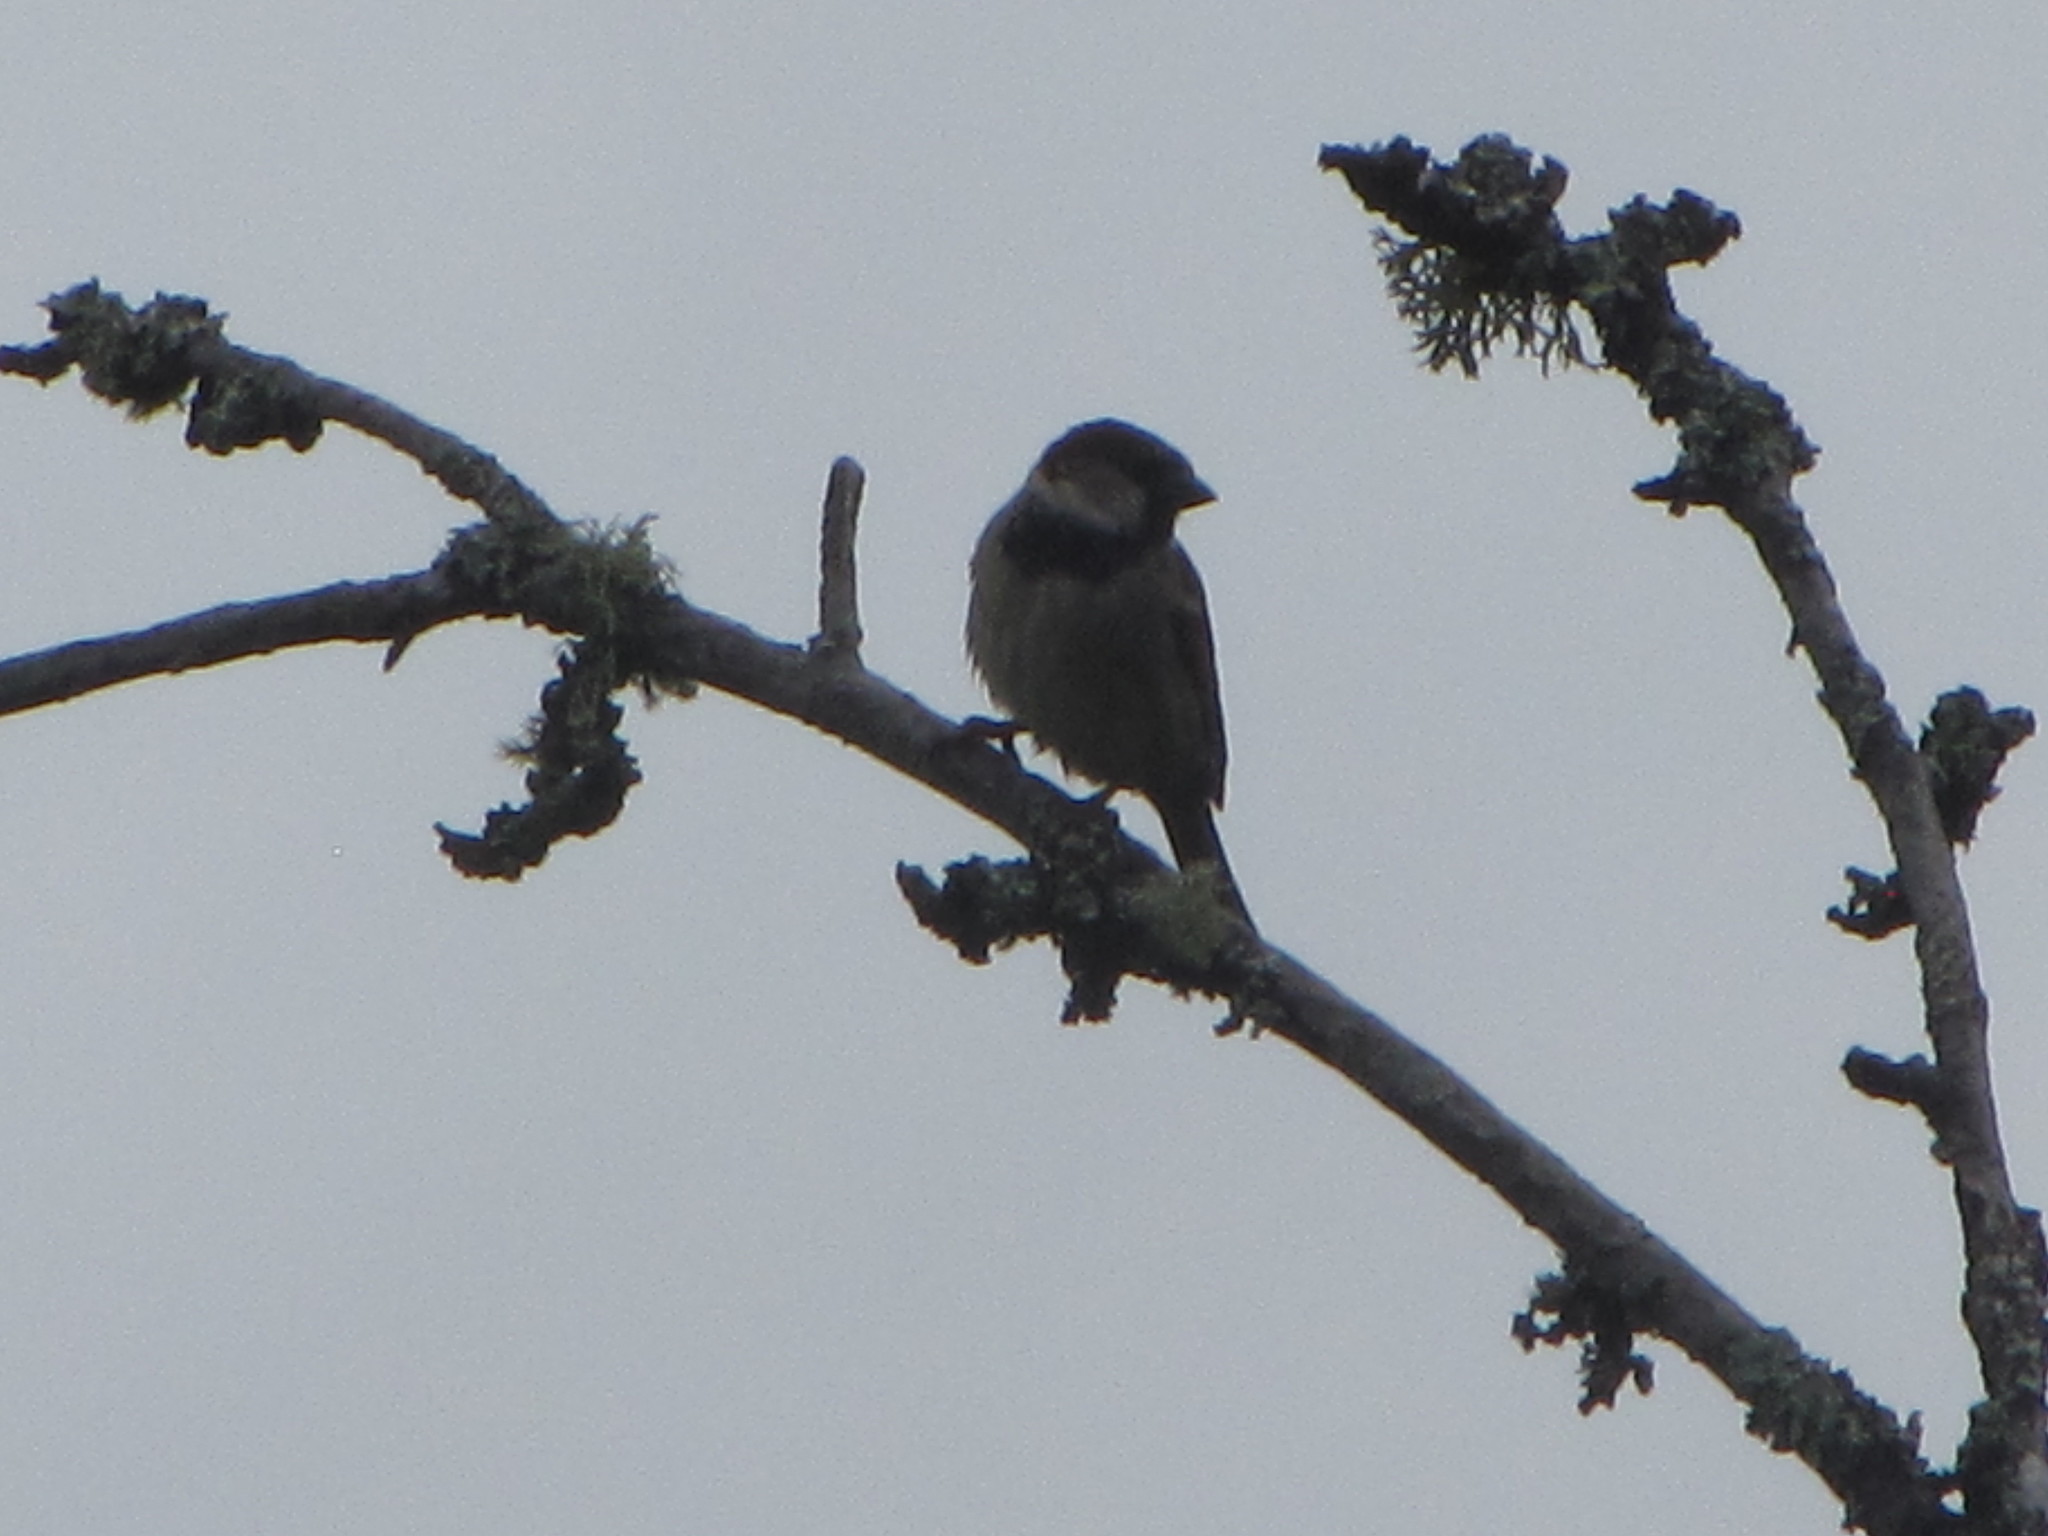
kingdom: Animalia
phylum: Chordata
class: Aves
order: Passeriformes
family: Passeridae
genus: Passer
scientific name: Passer domesticus
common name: House sparrow
